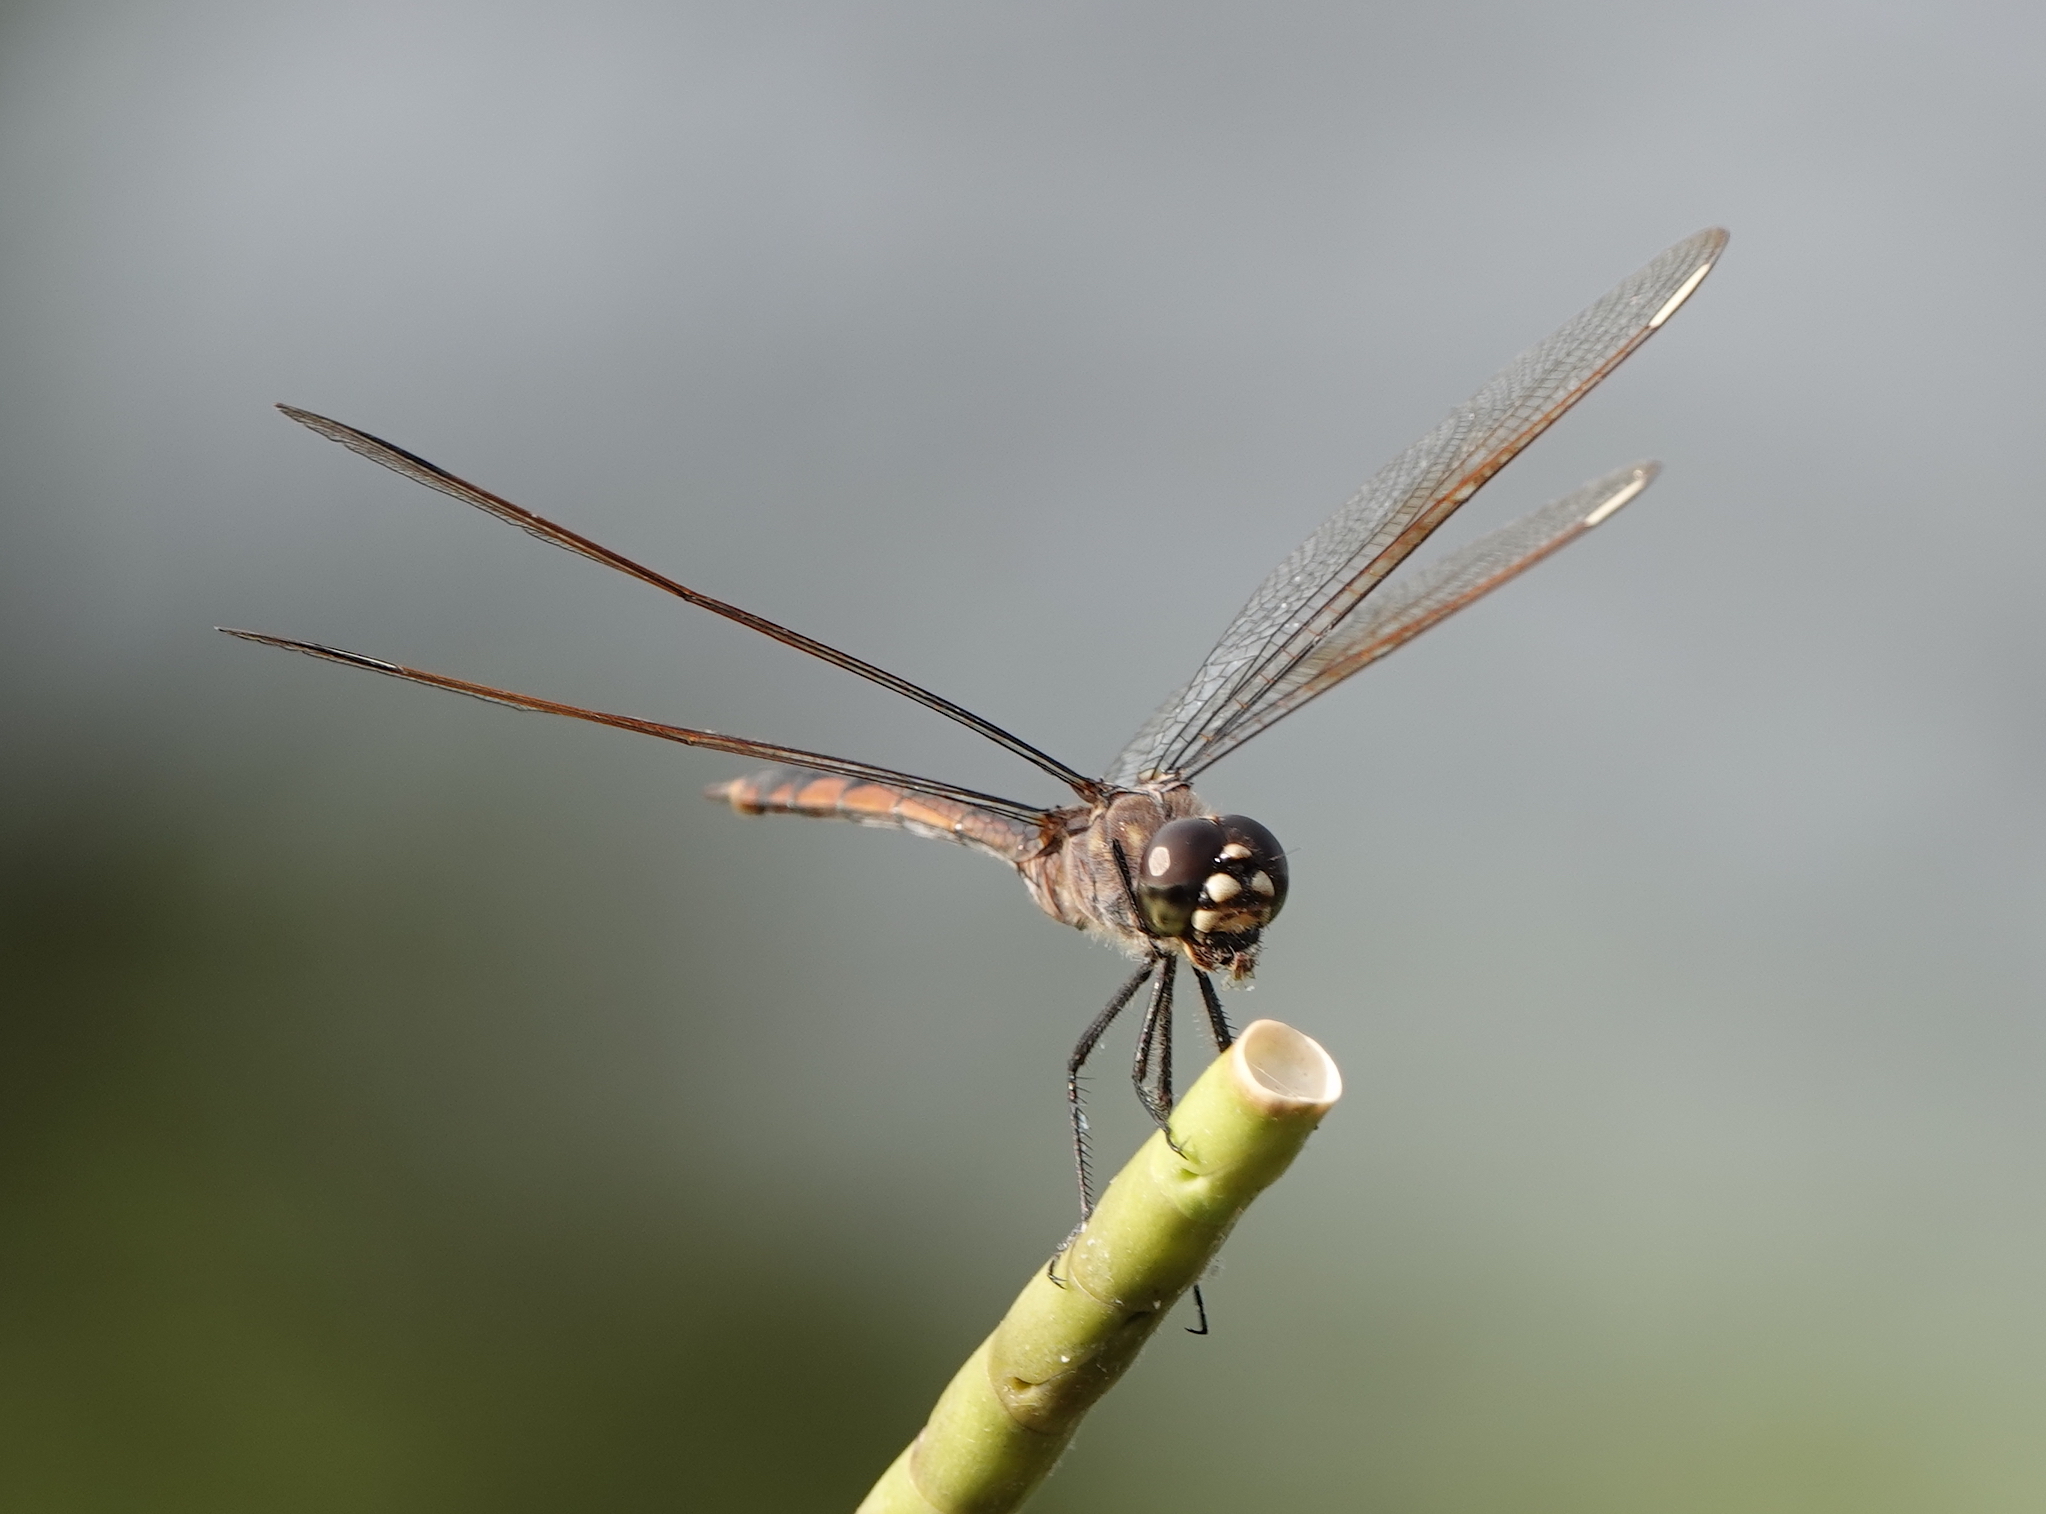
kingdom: Animalia
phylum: Arthropoda
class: Insecta
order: Odonata
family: Libellulidae
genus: Brachymesia
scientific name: Brachymesia gravida
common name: Four-spotted pennant
